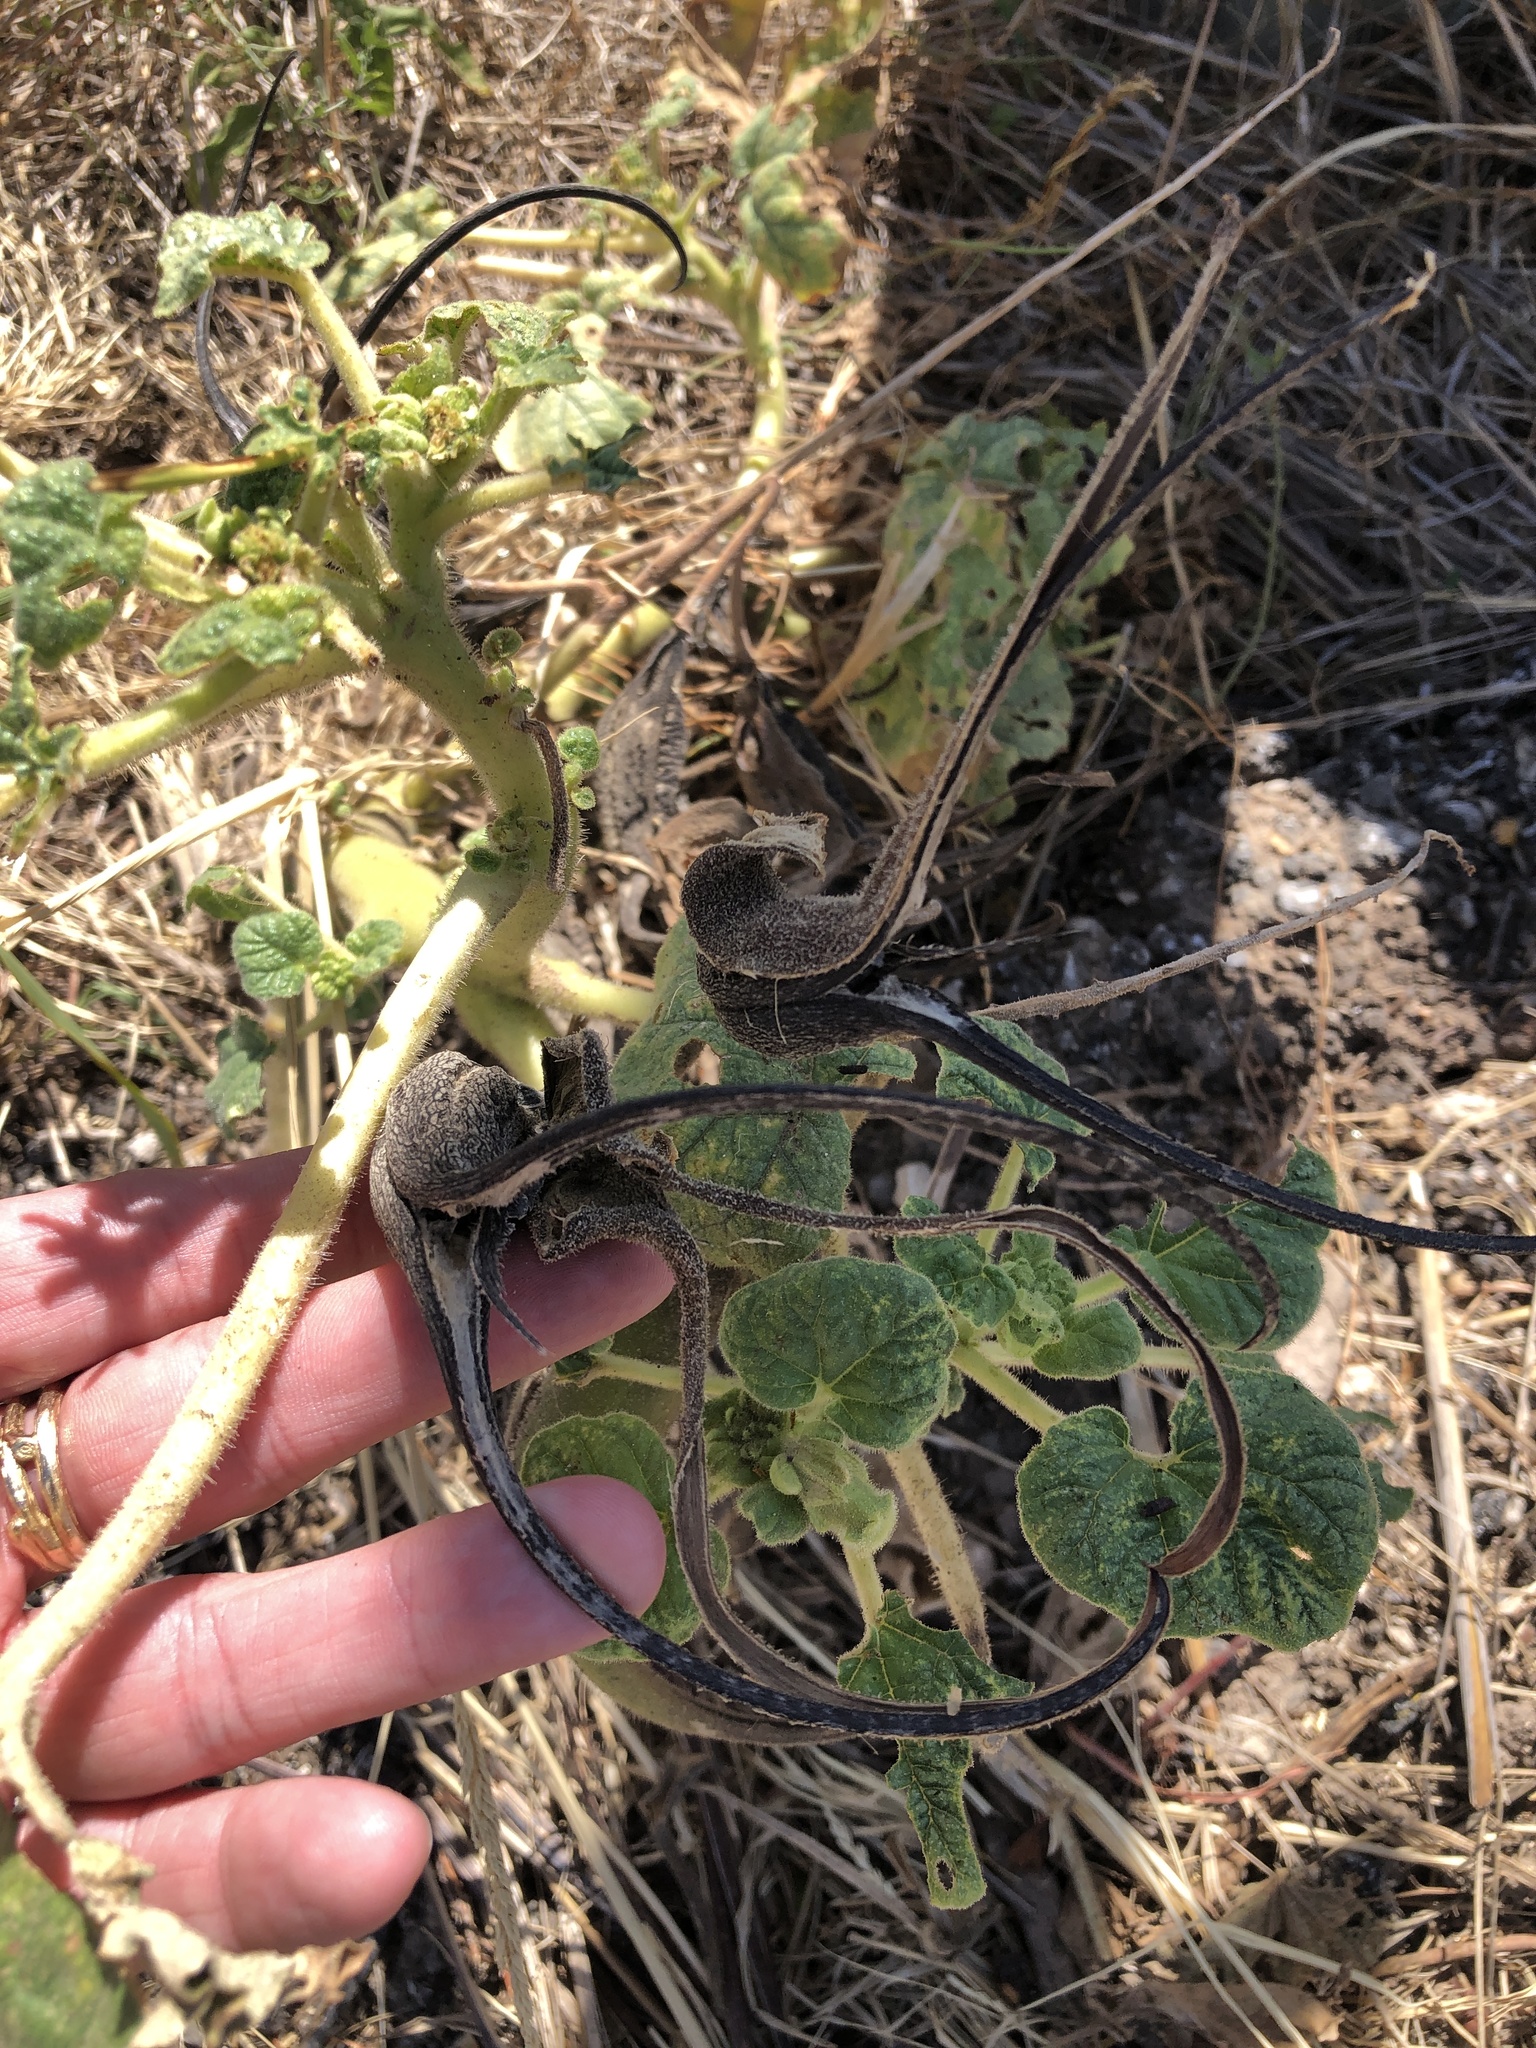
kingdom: Plantae
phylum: Tracheophyta
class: Magnoliopsida
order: Lamiales
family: Martyniaceae
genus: Proboscidea
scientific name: Proboscidea louisianica
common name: Elephant tusks
